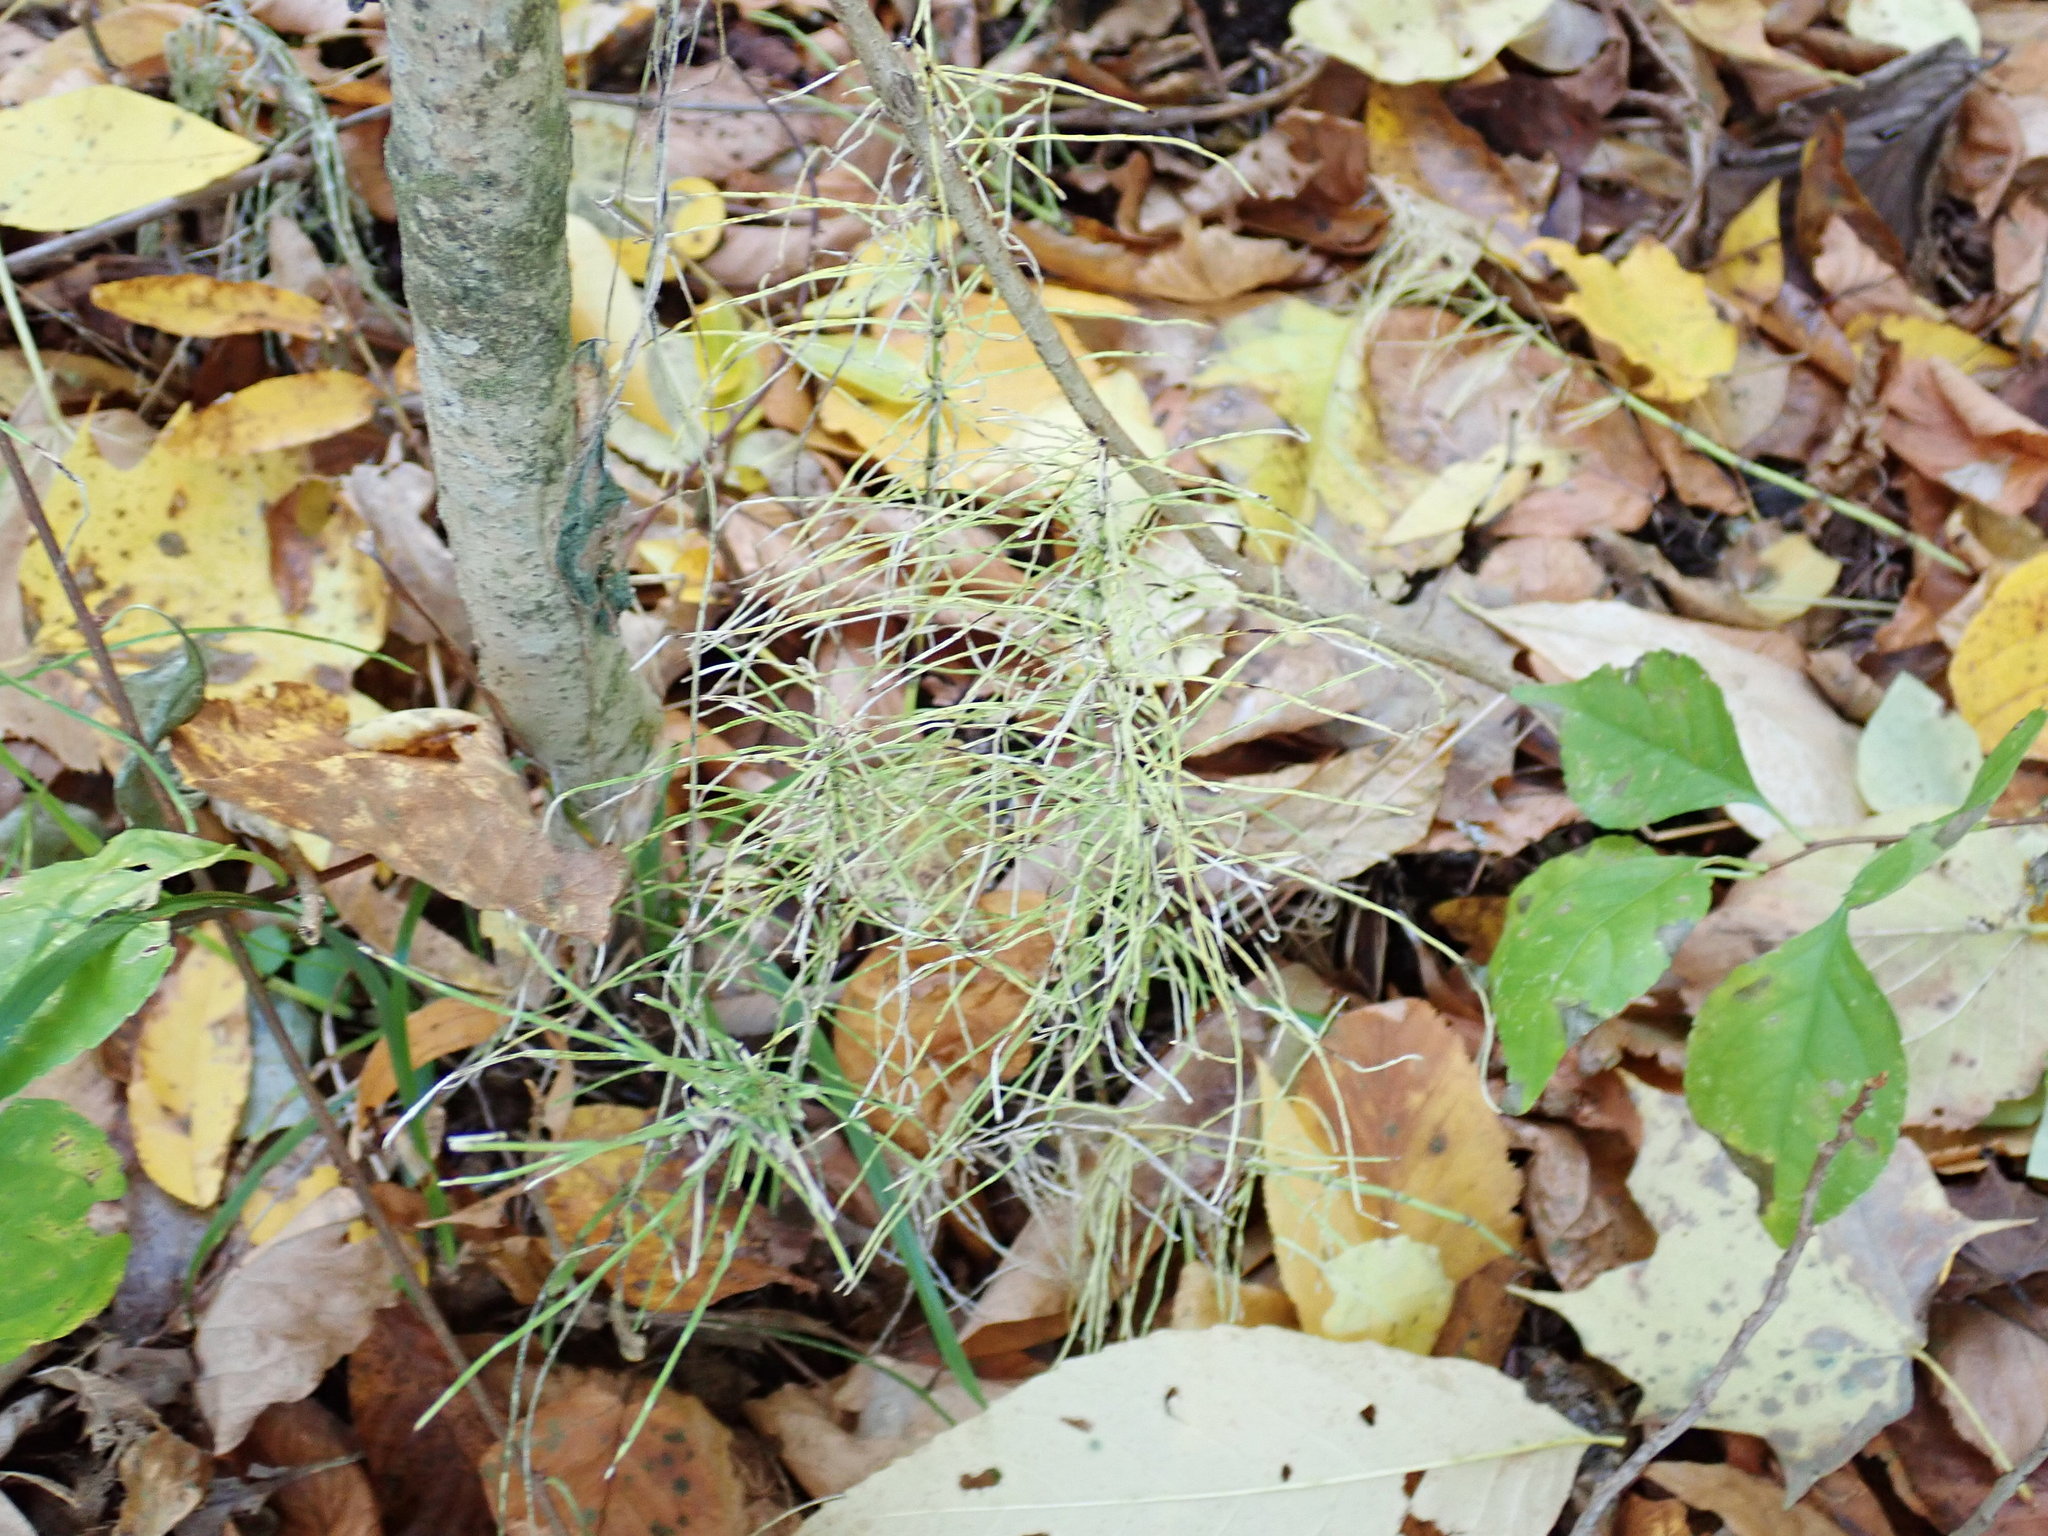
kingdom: Plantae
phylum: Tracheophyta
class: Polypodiopsida
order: Equisetales
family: Equisetaceae
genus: Equisetum
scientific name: Equisetum pratense
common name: Meadow horsetail
